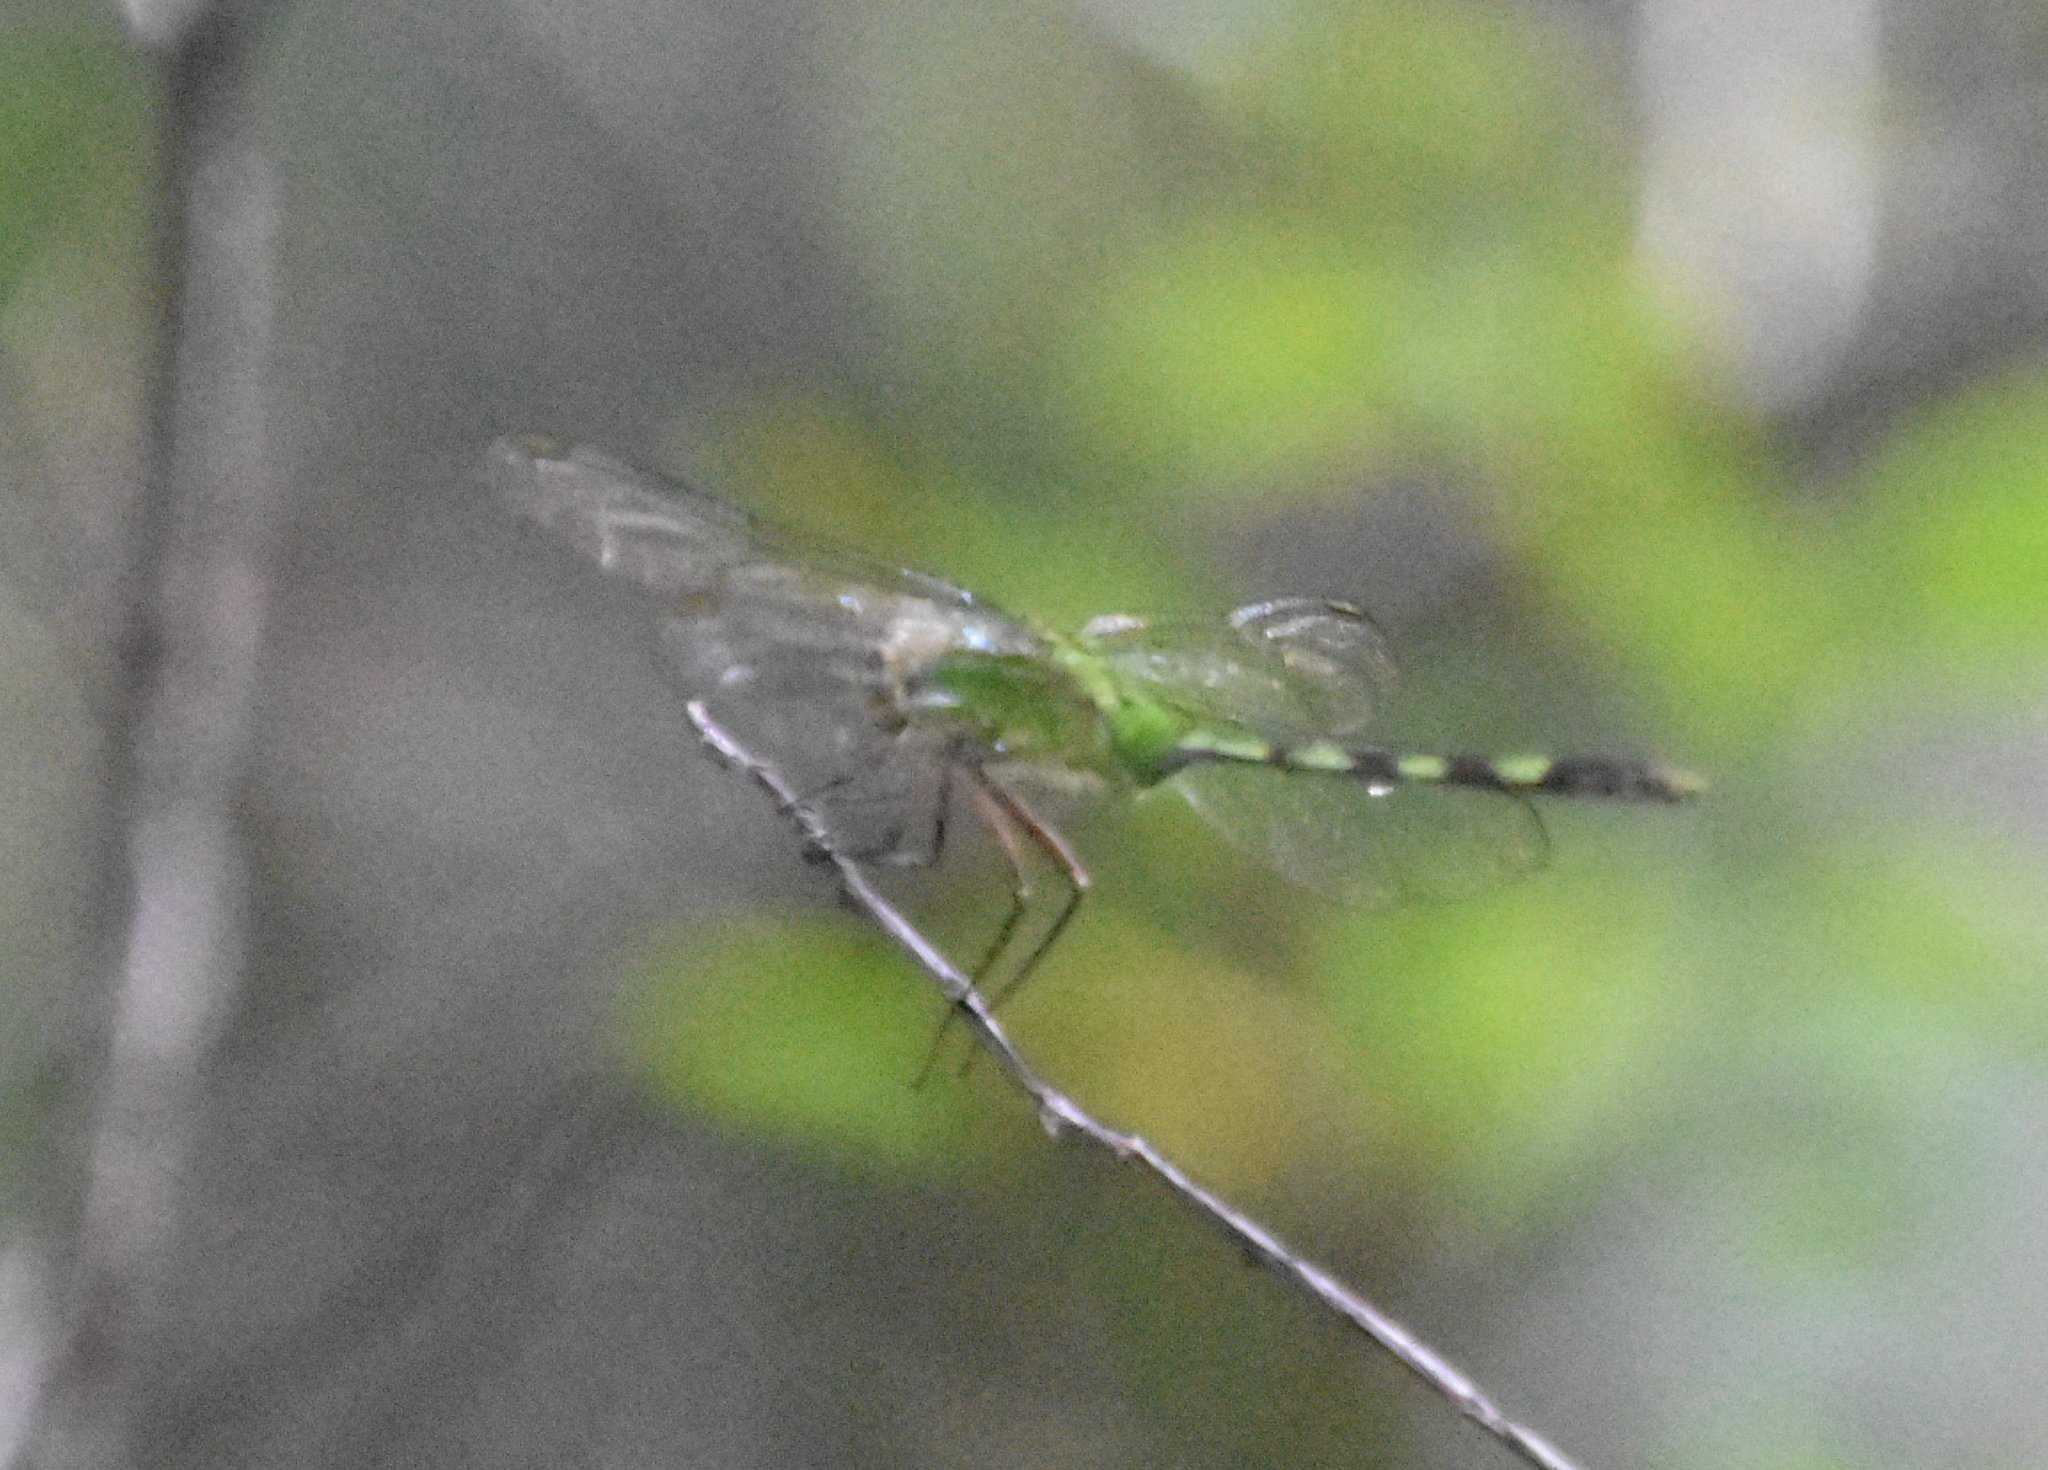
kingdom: Animalia
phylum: Arthropoda
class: Insecta
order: Odonata
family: Libellulidae
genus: Erythemis
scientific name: Erythemis vesiculosa
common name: Great pondhawk
